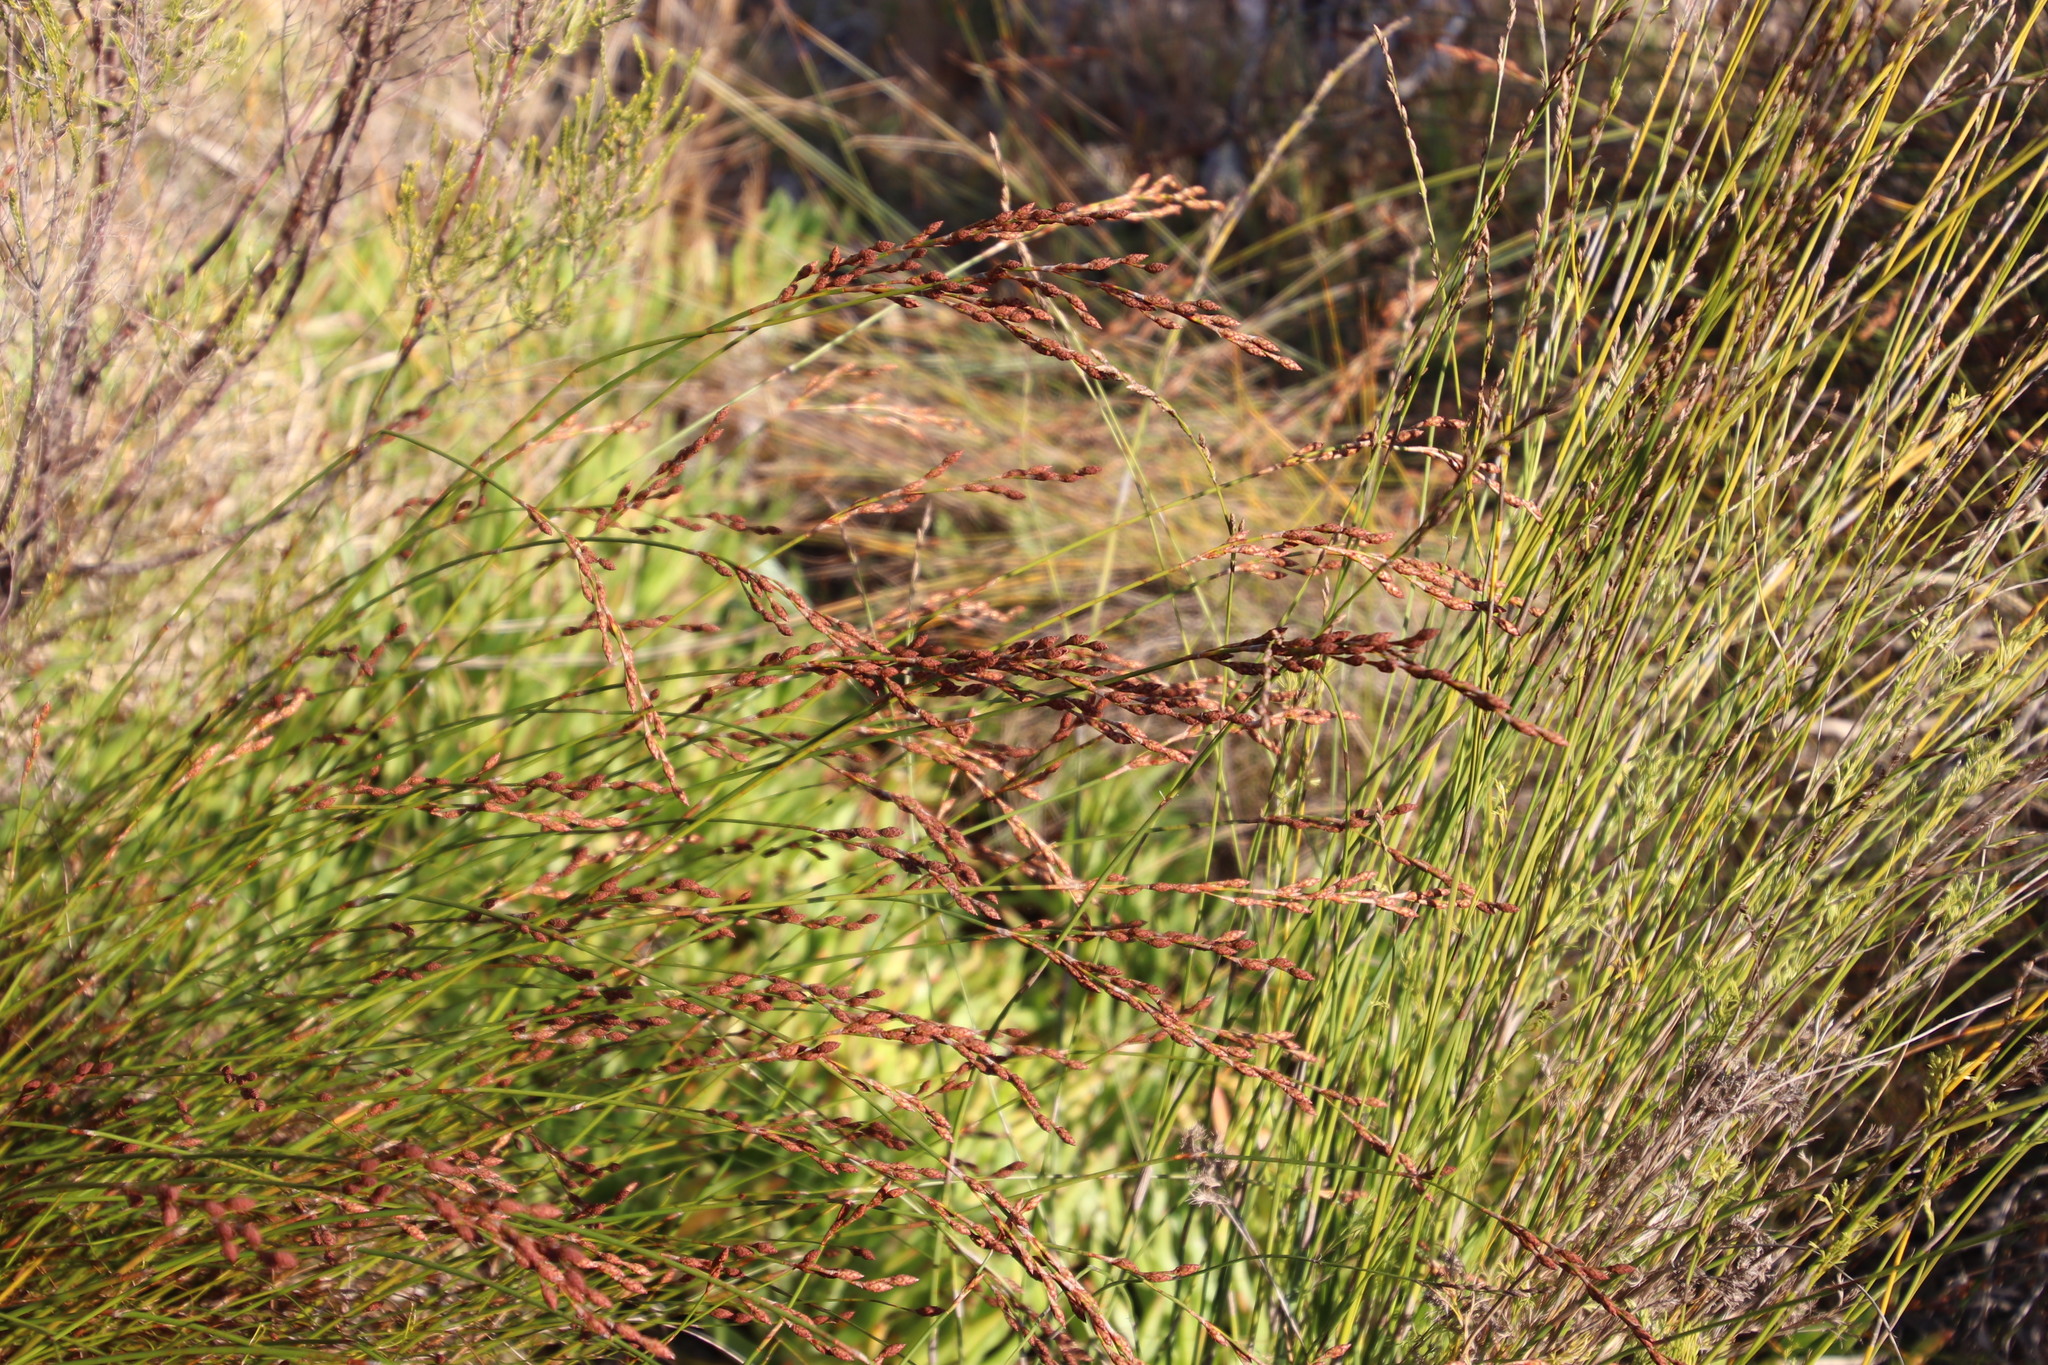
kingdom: Plantae
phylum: Tracheophyta
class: Liliopsida
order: Poales
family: Restionaceae
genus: Restio
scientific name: Restio bifurcus
